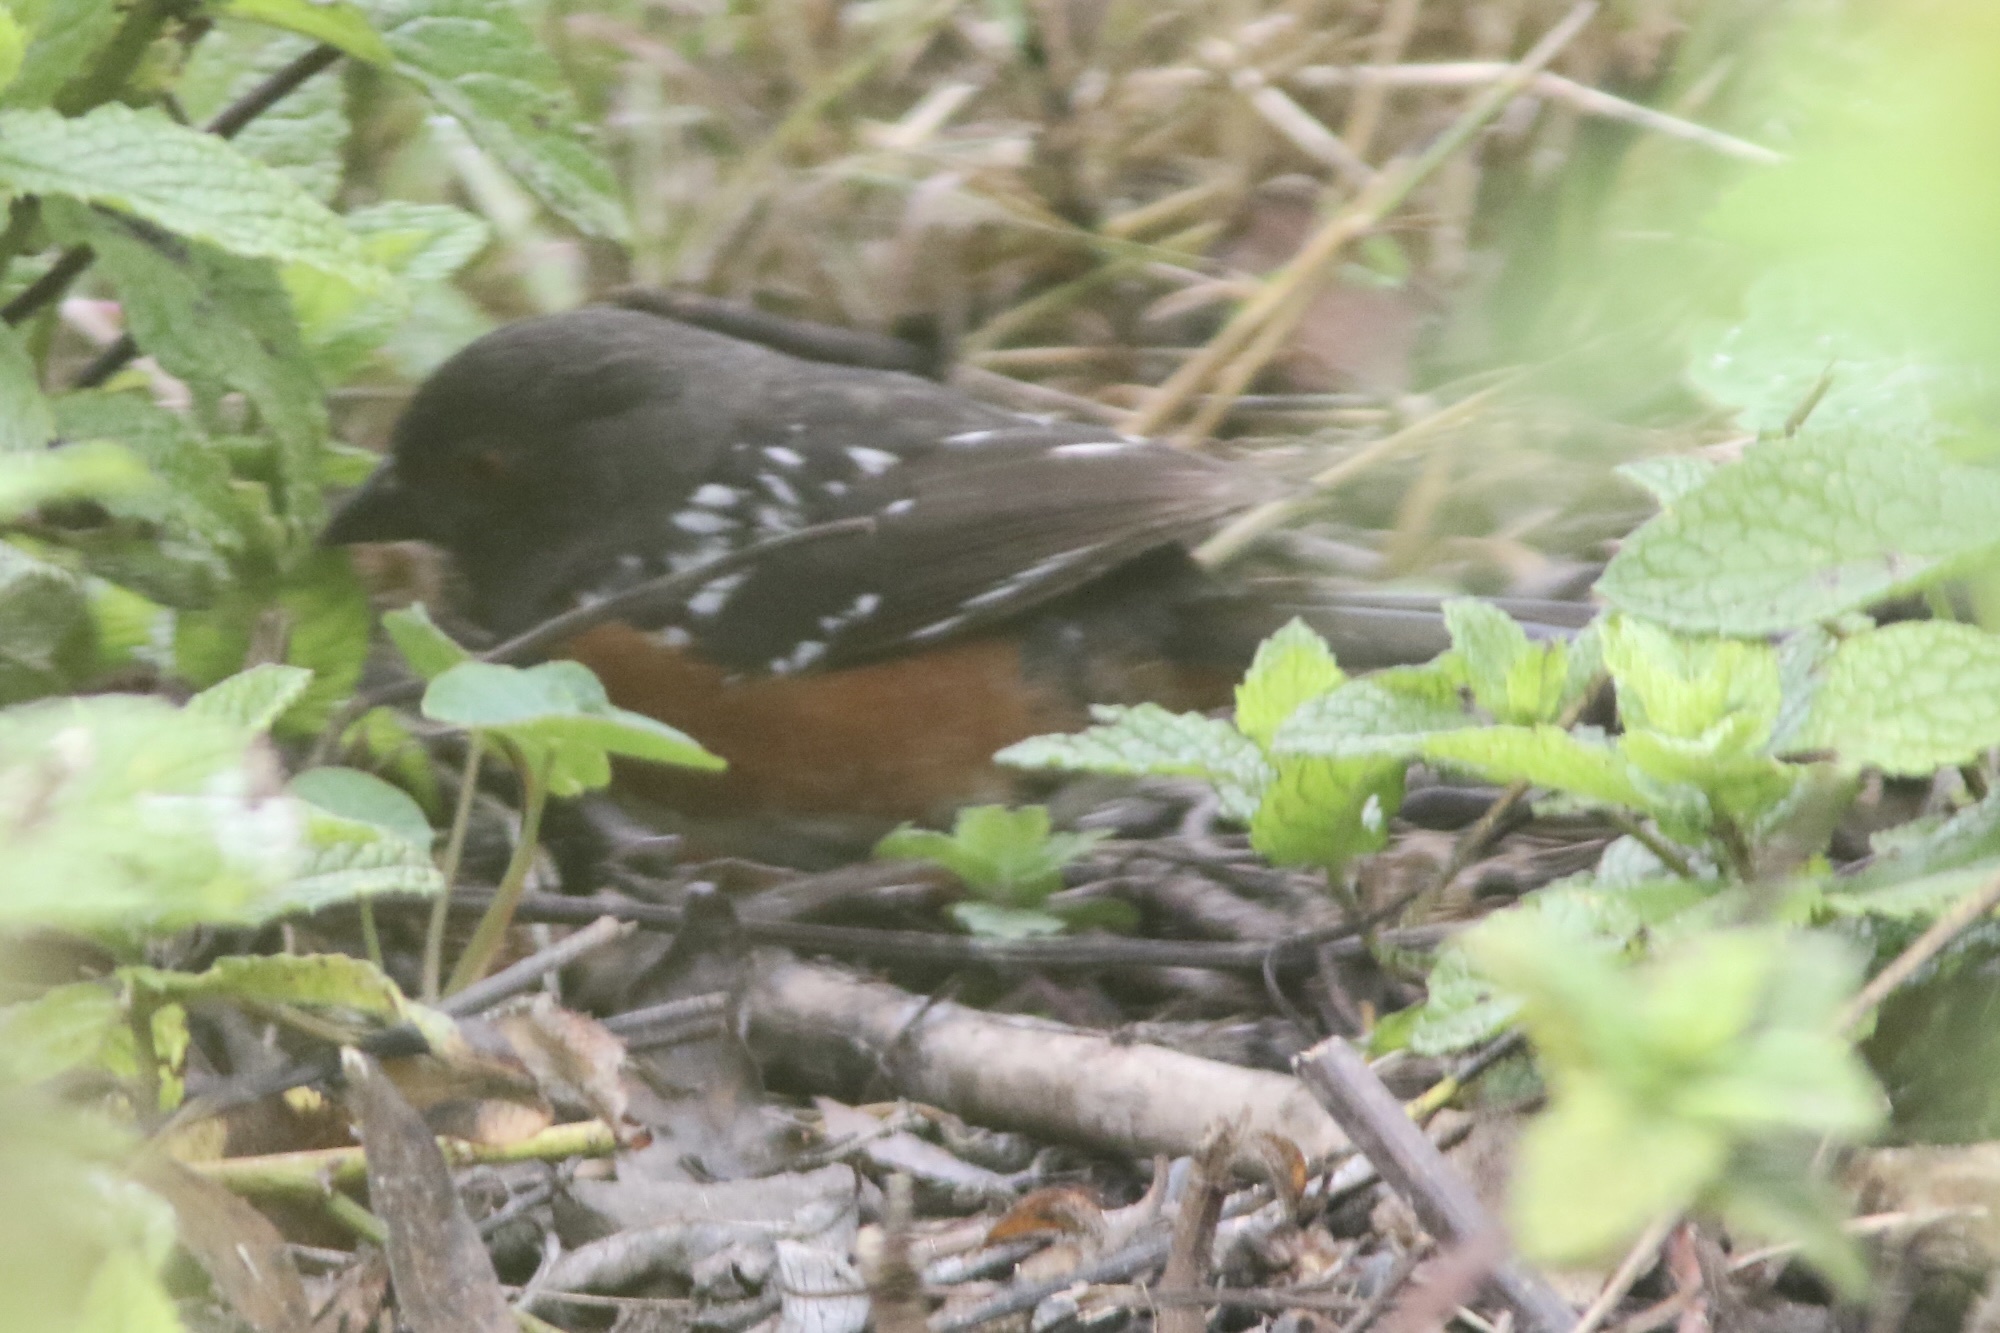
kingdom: Animalia
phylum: Chordata
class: Aves
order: Passeriformes
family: Passerellidae
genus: Pipilo
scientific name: Pipilo maculatus
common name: Spotted towhee
